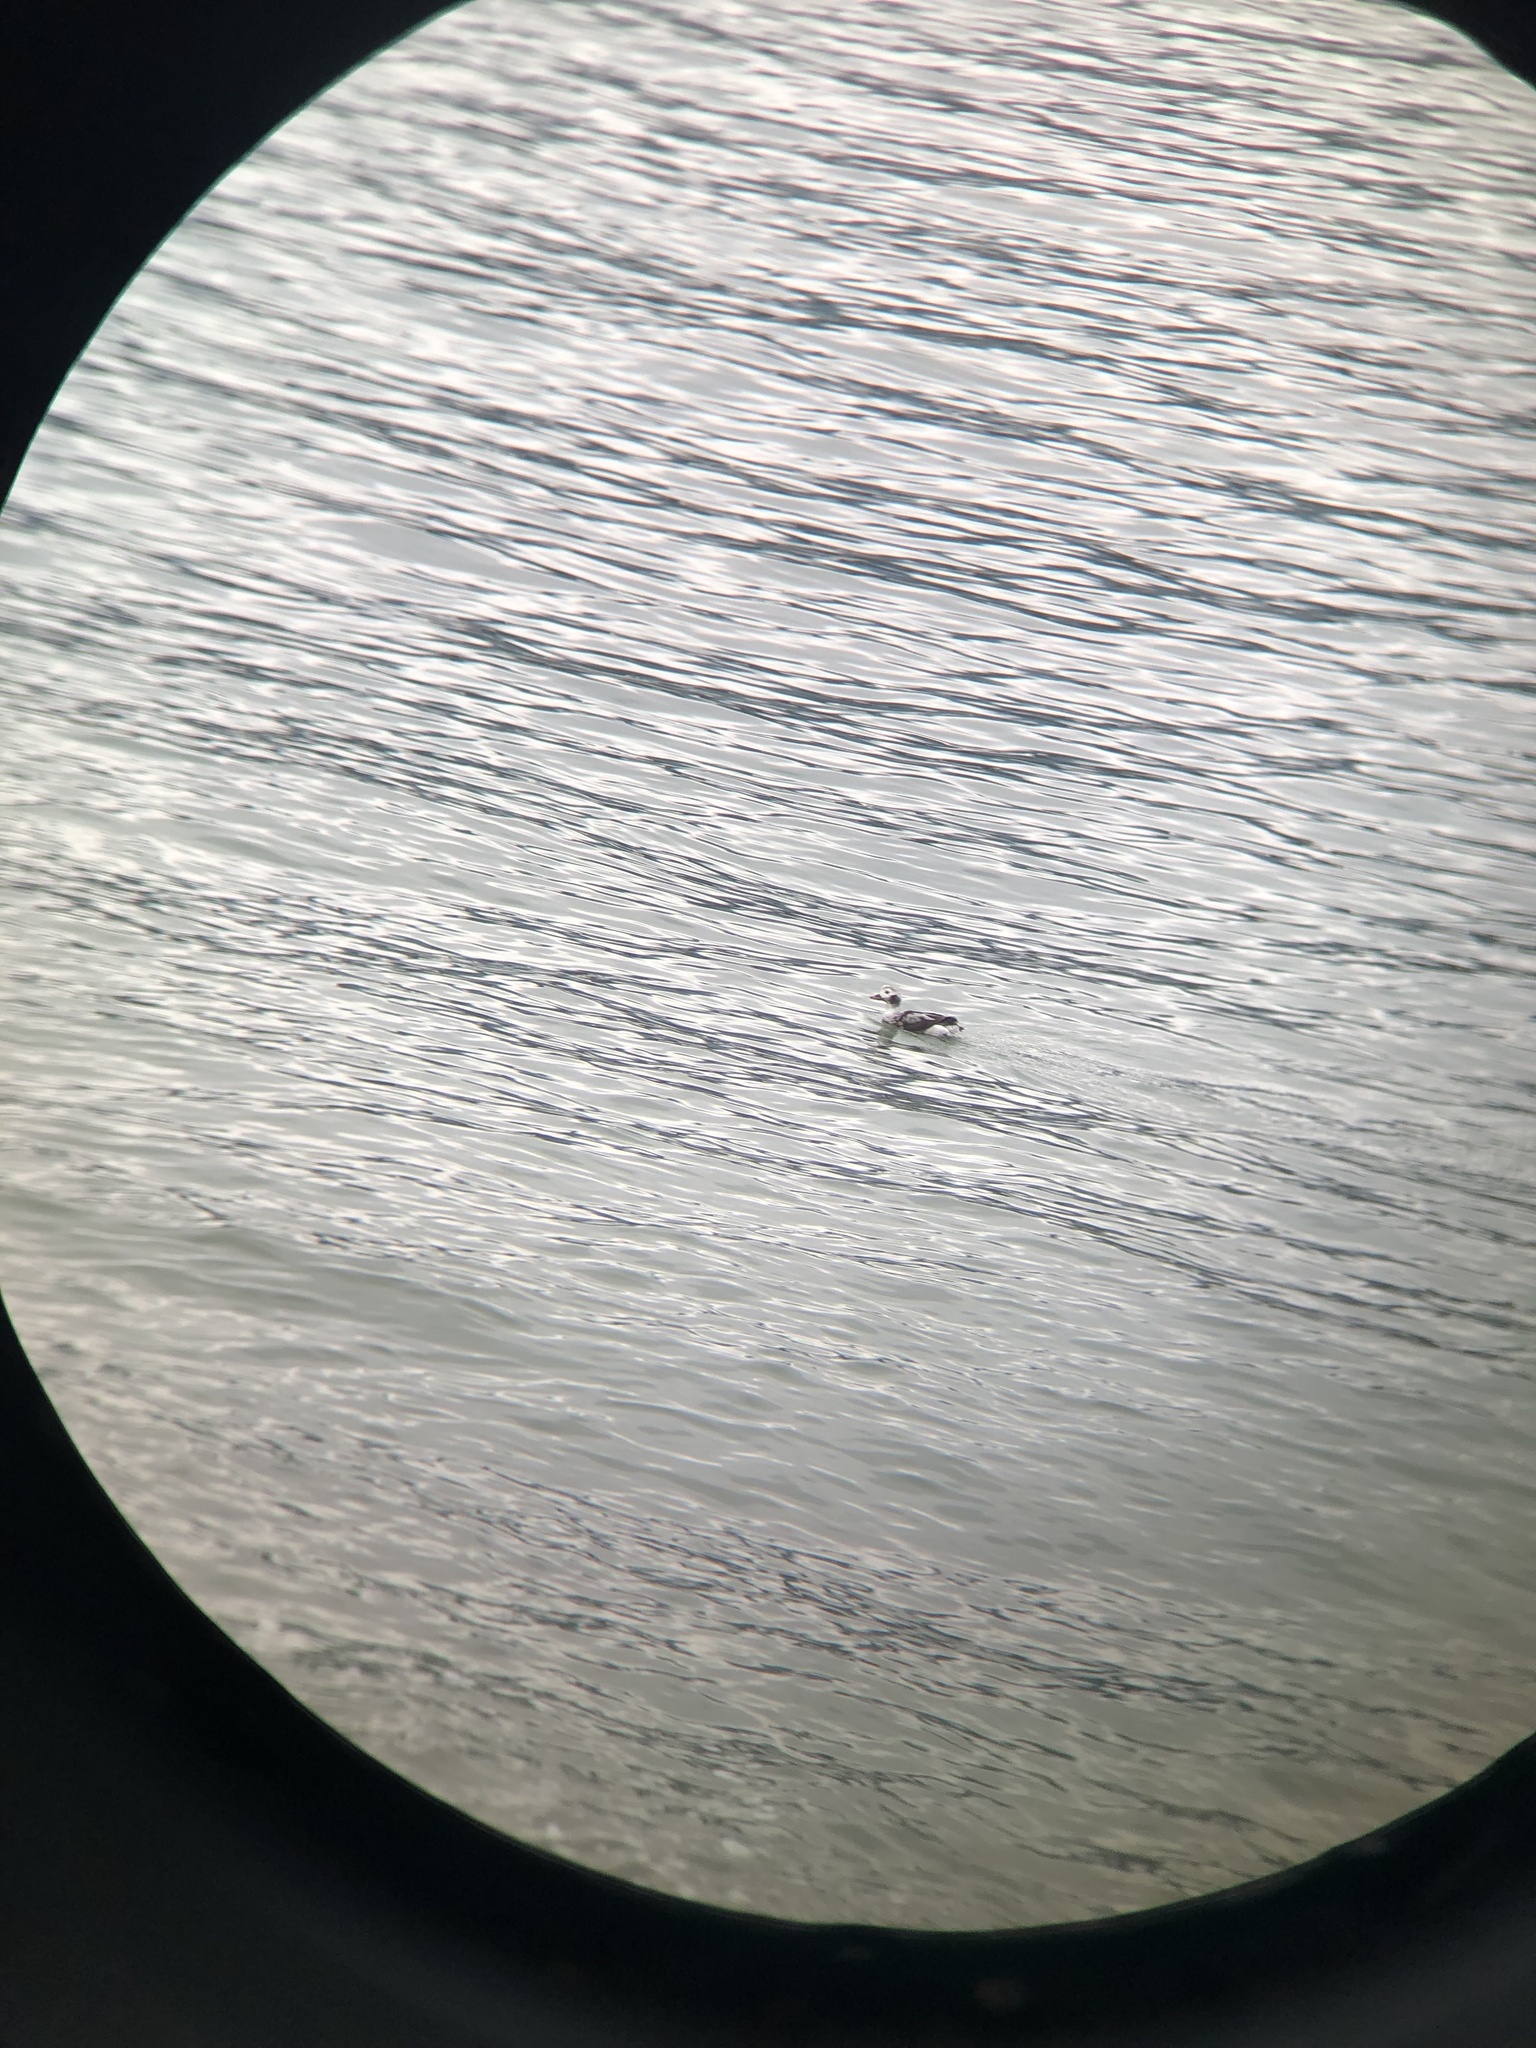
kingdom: Animalia
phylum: Chordata
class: Aves
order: Anseriformes
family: Anatidae
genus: Clangula
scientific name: Clangula hyemalis
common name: Long-tailed duck
